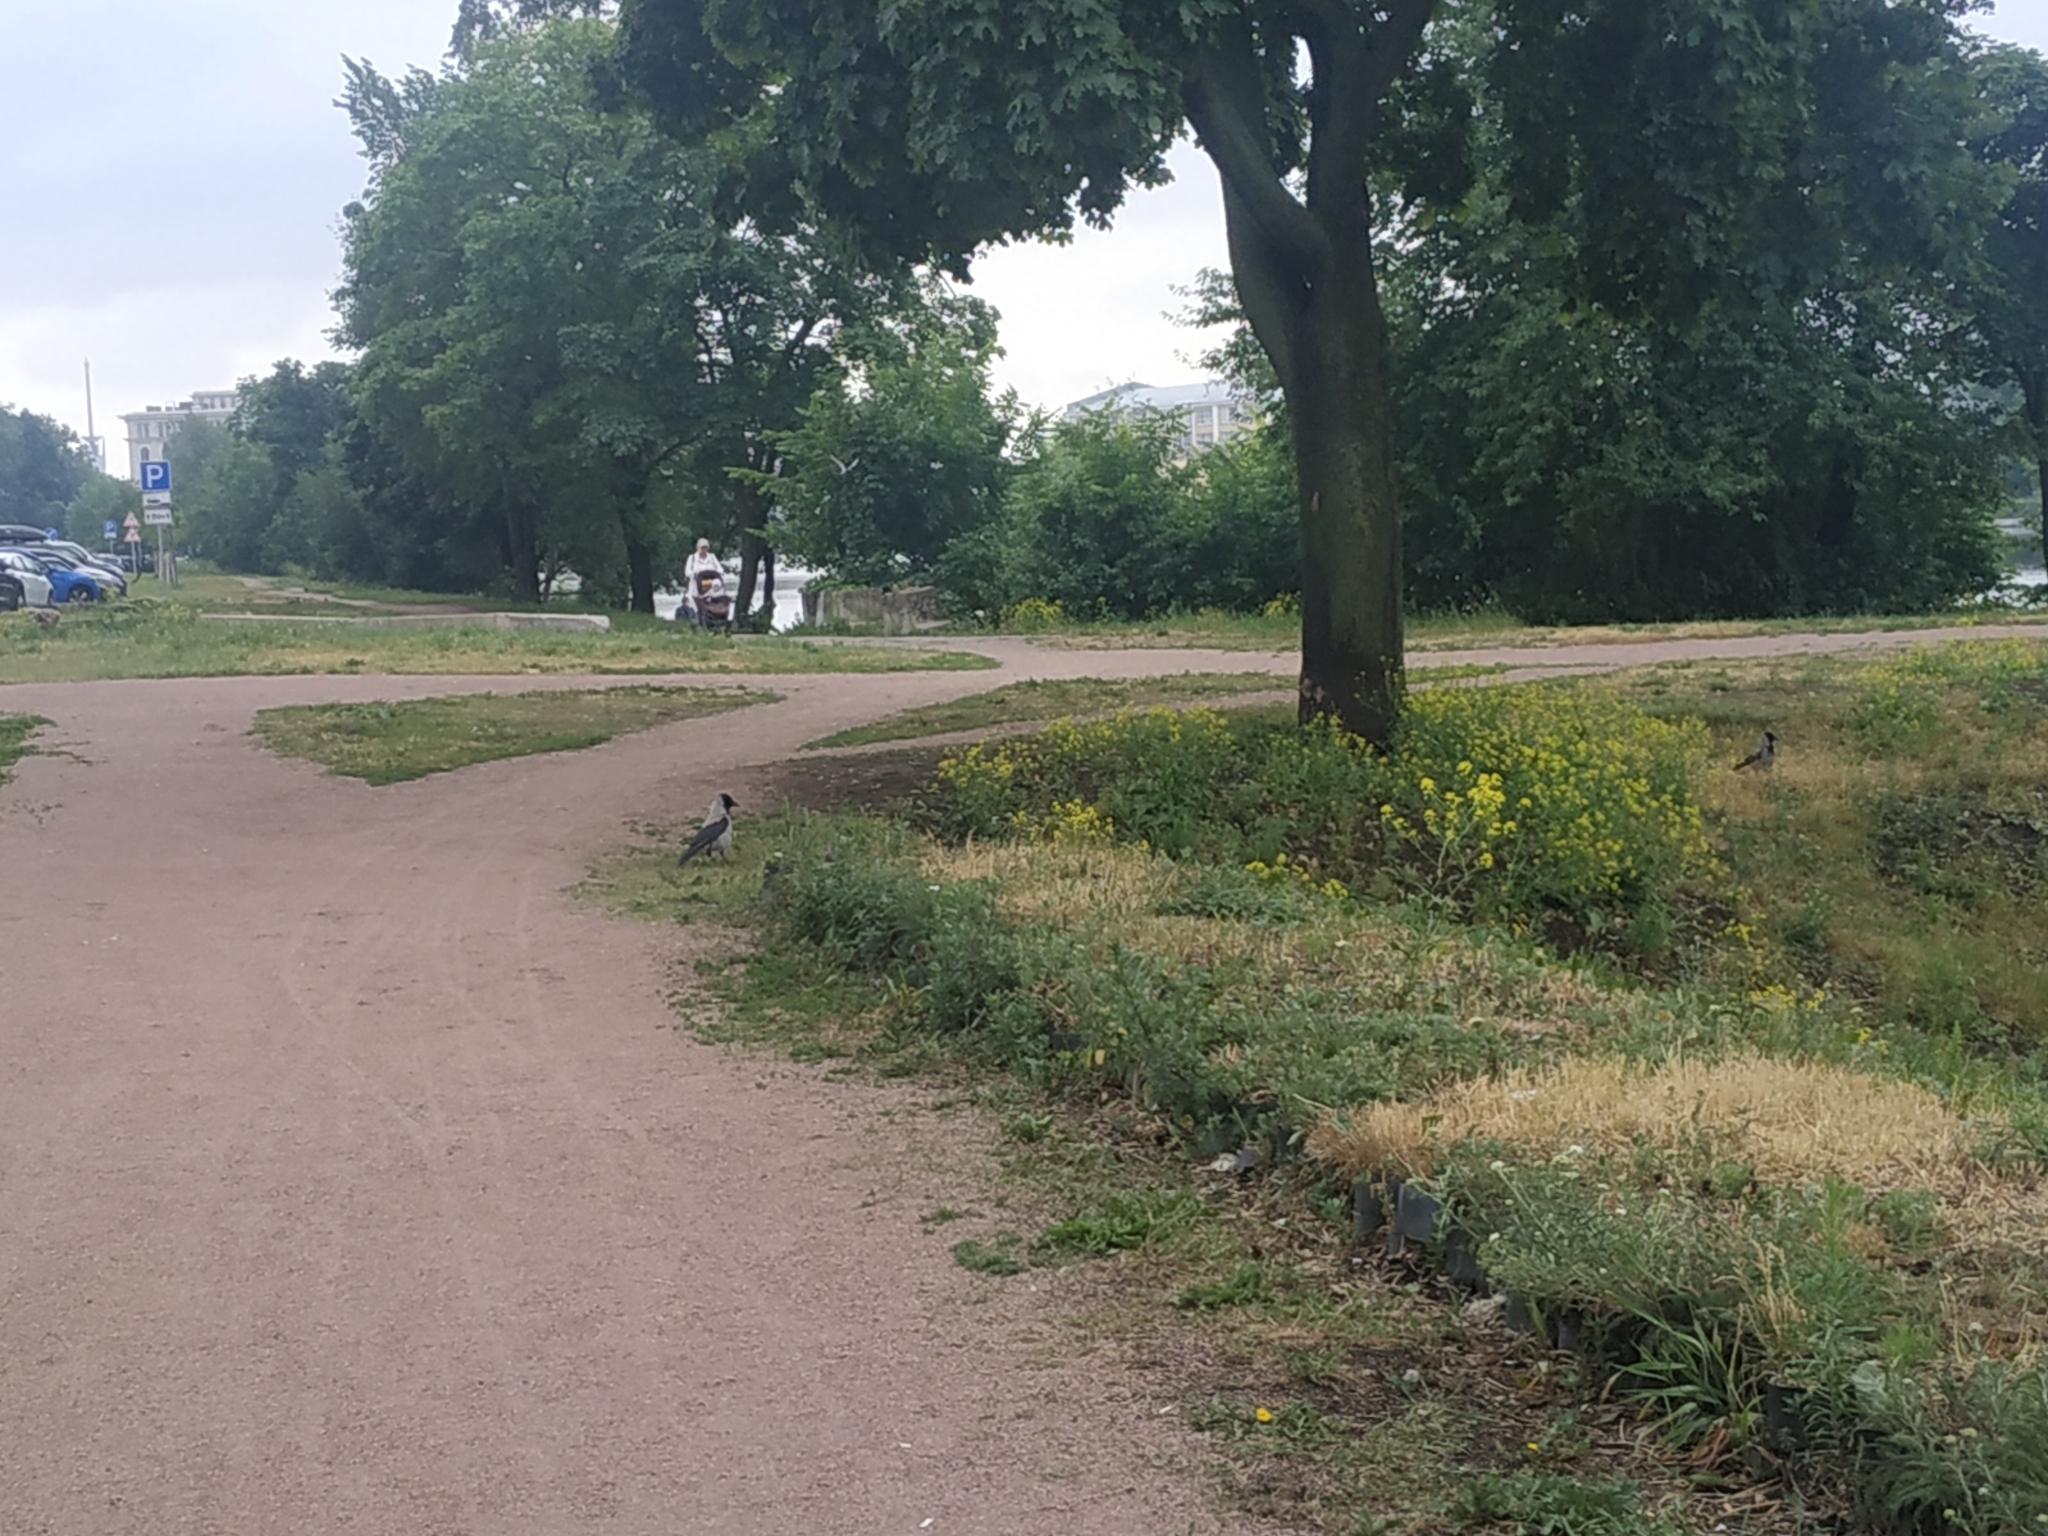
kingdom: Animalia
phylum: Chordata
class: Aves
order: Passeriformes
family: Corvidae
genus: Corvus
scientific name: Corvus cornix
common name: Hooded crow
